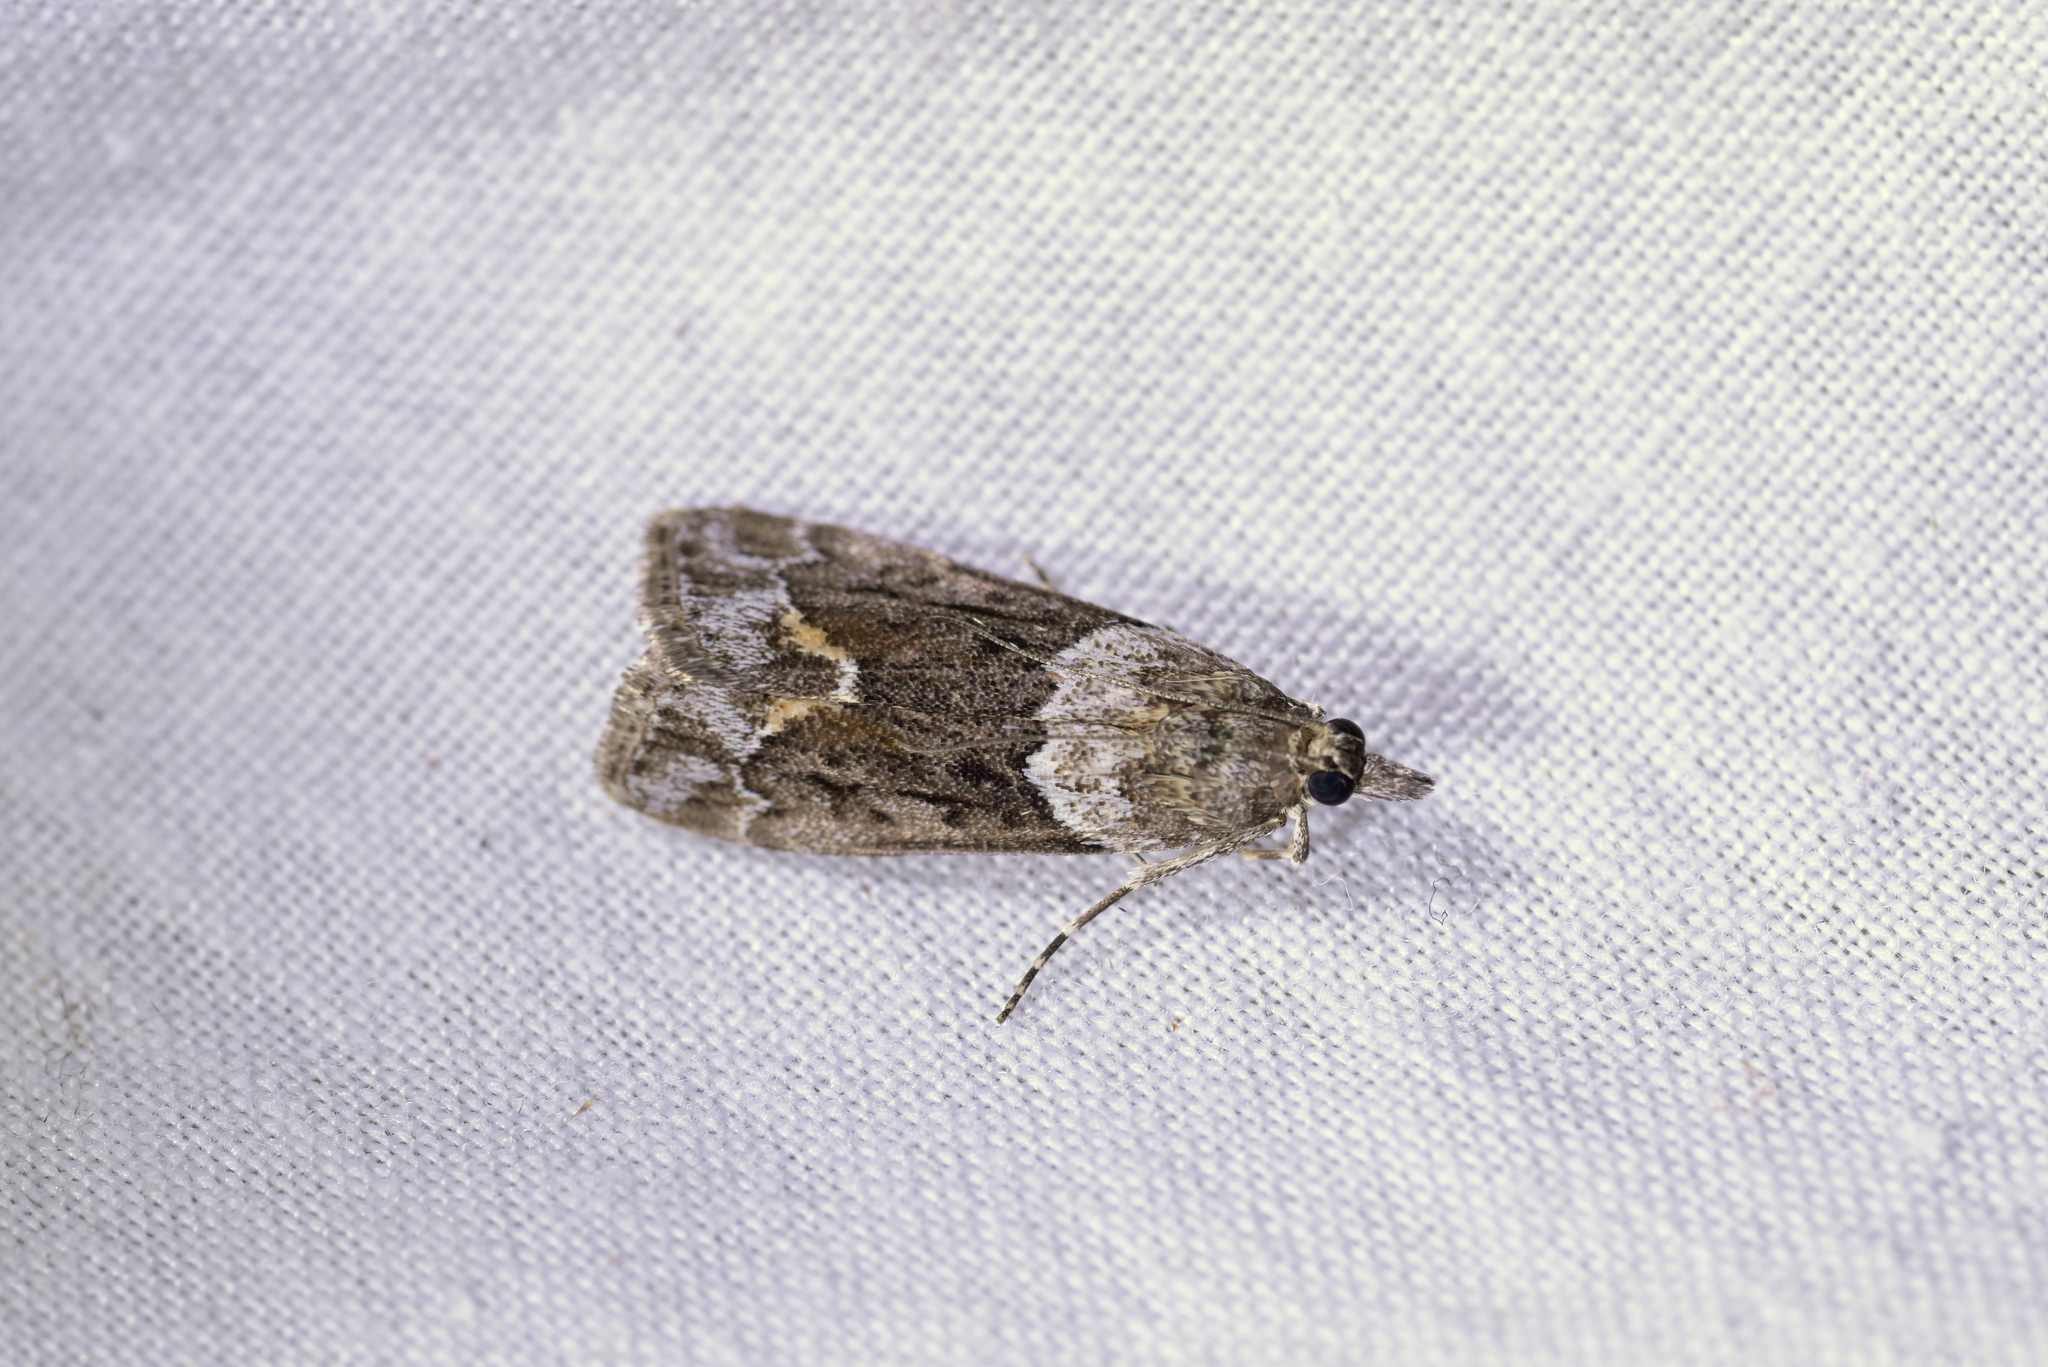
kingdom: Animalia
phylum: Arthropoda
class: Insecta
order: Lepidoptera
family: Crambidae
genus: Eudonia
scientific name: Eudonia submarginalis
